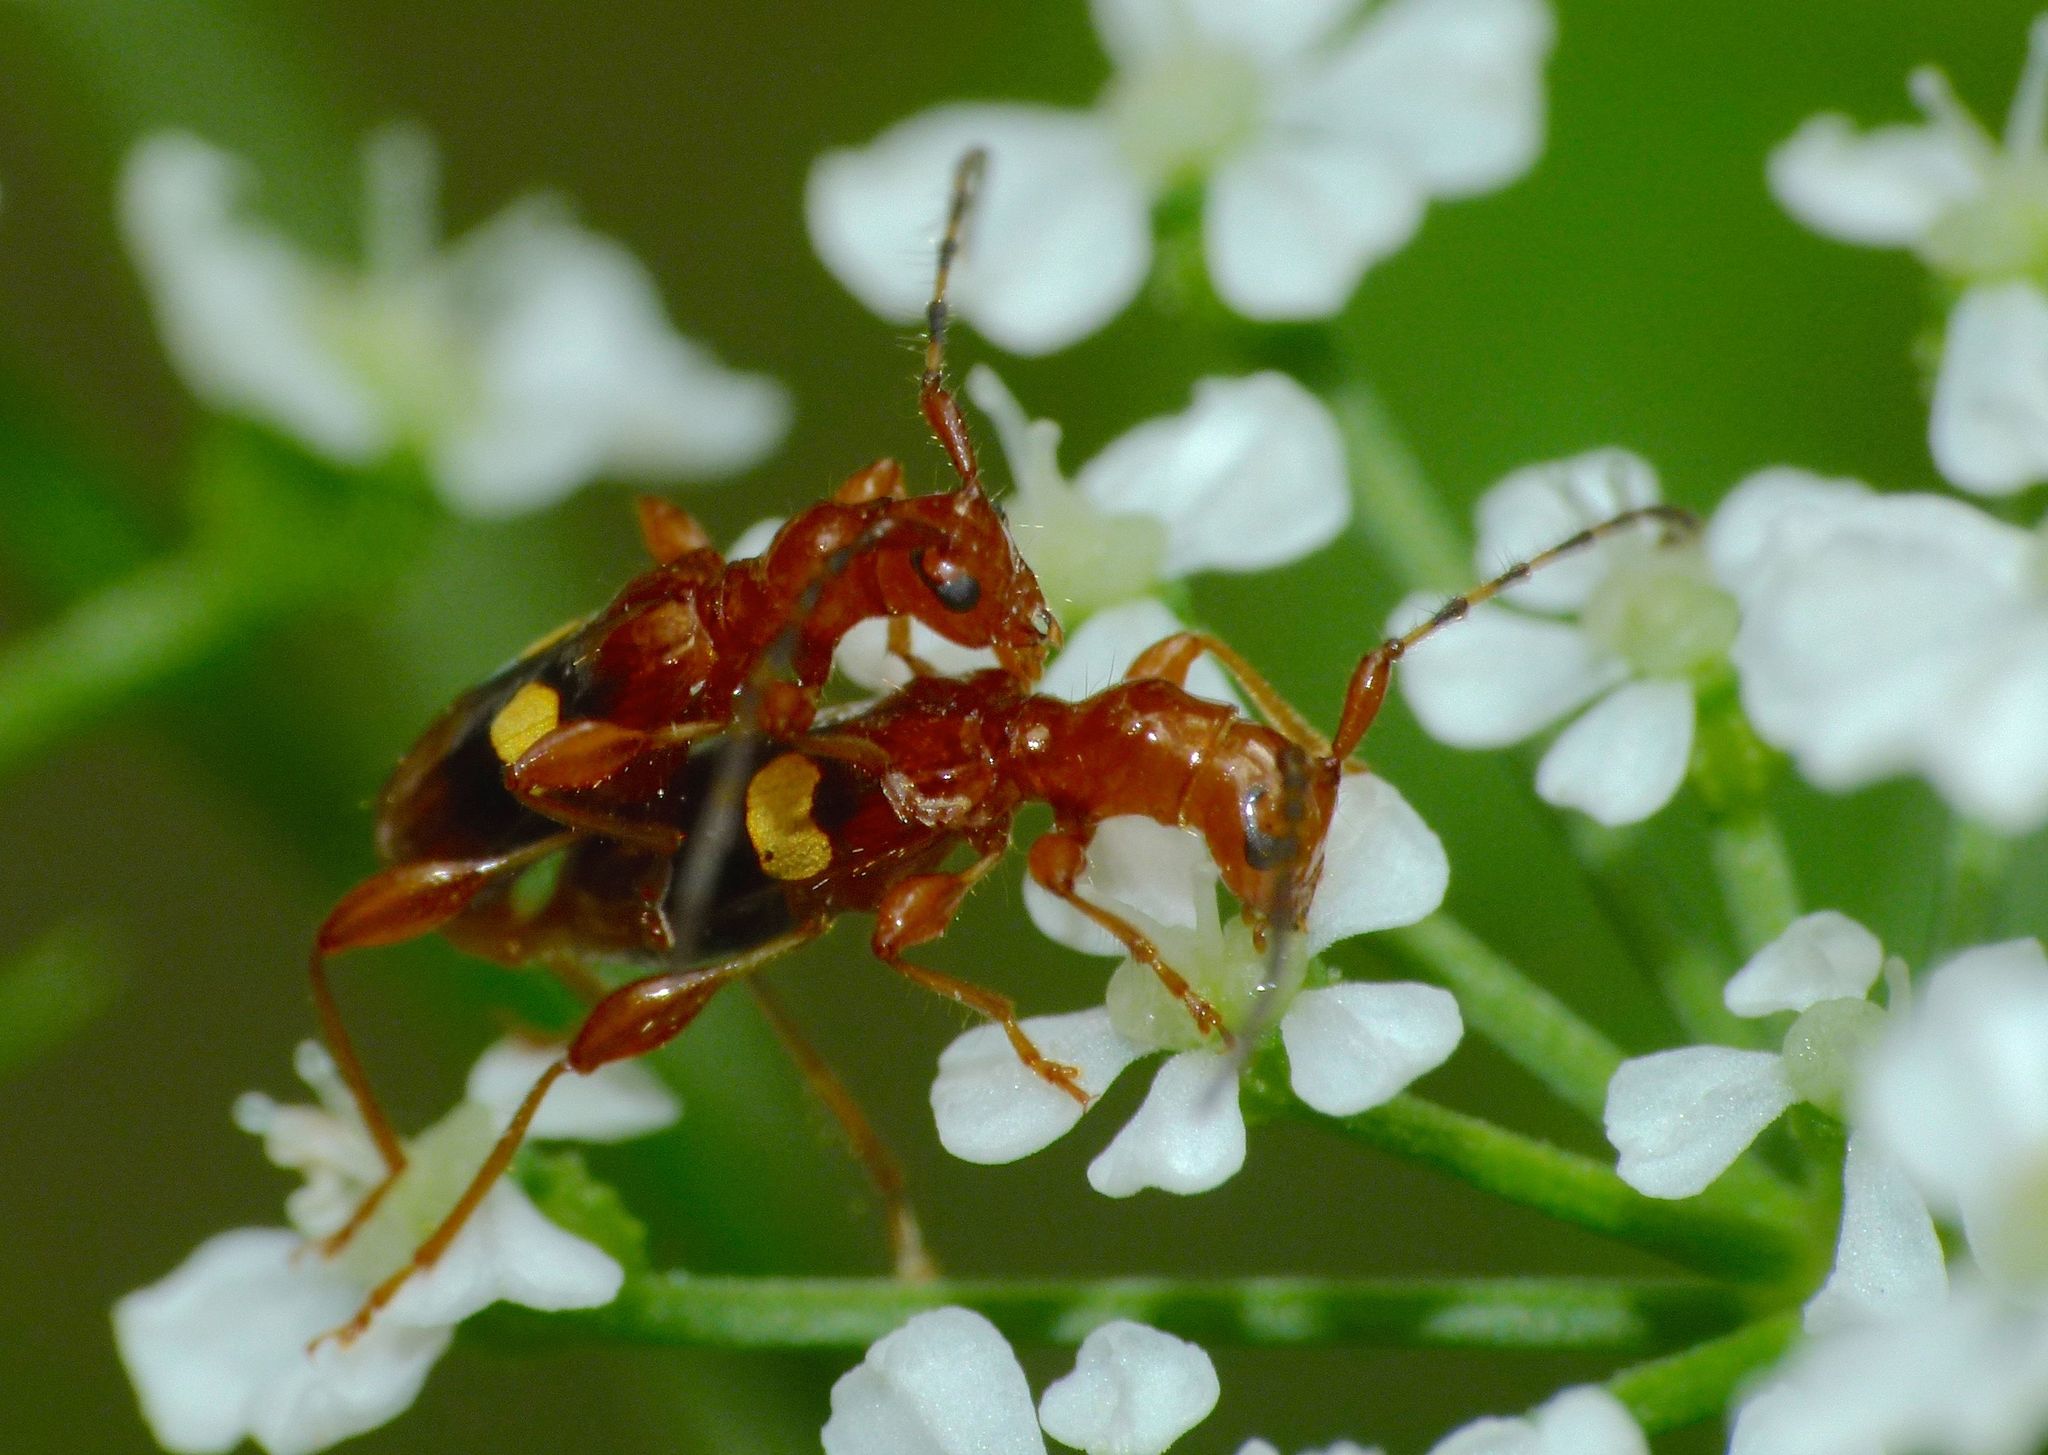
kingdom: Animalia
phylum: Arthropoda
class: Insecta
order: Coleoptera
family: Cerambycidae
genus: Zorion
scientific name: Zorion australe
